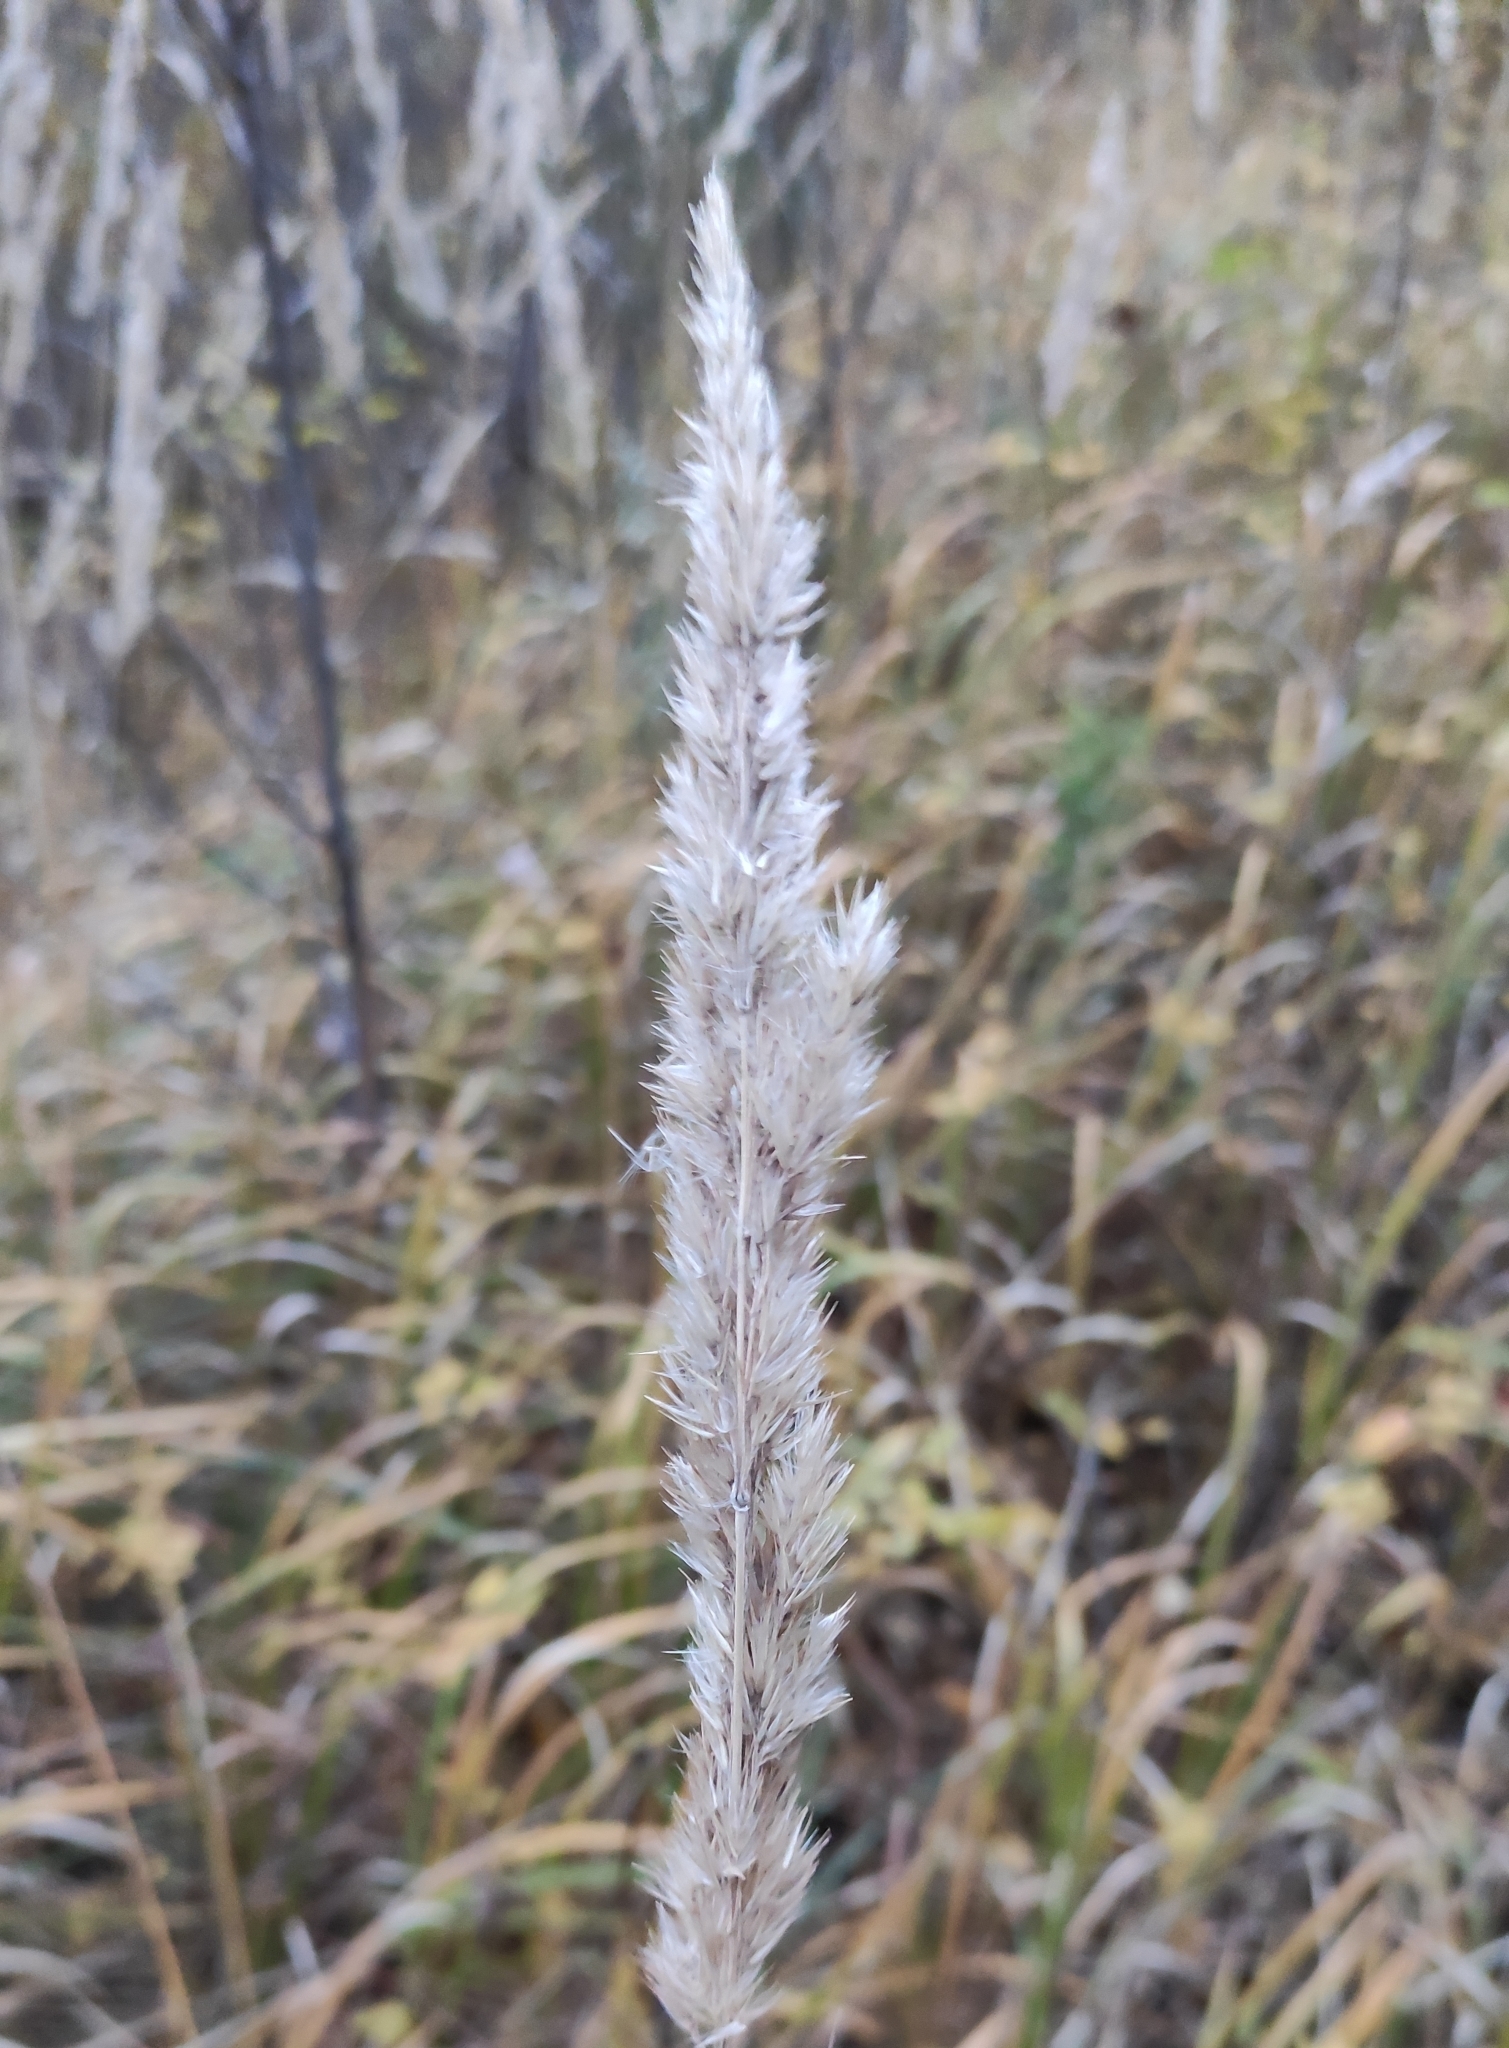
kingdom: Plantae
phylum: Tracheophyta
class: Liliopsida
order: Poales
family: Poaceae
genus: Calamagrostis
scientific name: Calamagrostis epigejos
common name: Wood small-reed
